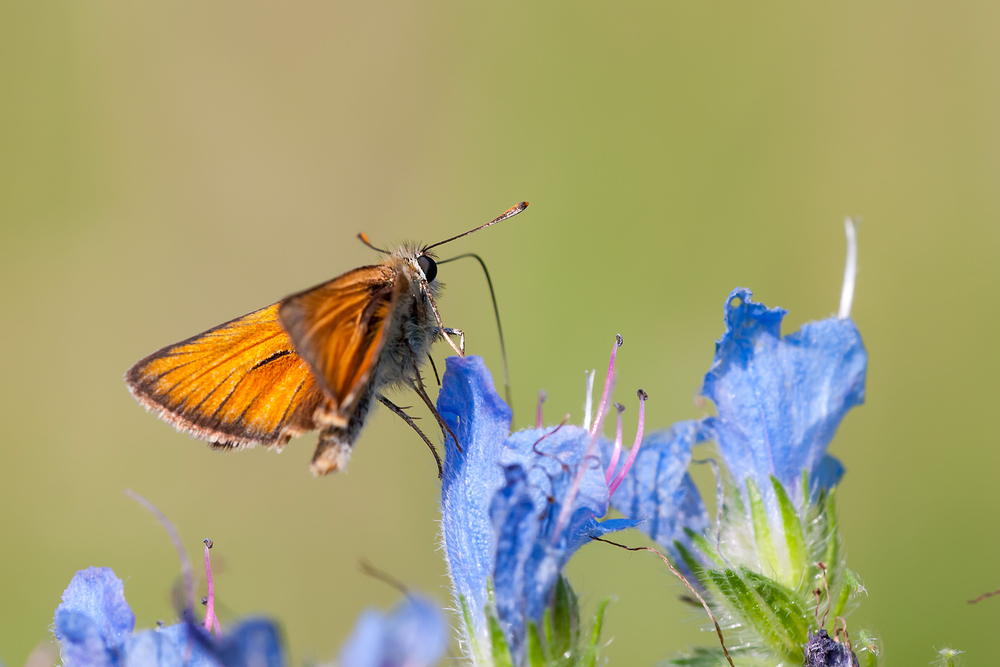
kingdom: Animalia
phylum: Arthropoda
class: Insecta
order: Lepidoptera
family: Hesperiidae
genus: Thymelicus
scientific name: Thymelicus sylvestris
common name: Small skipper
